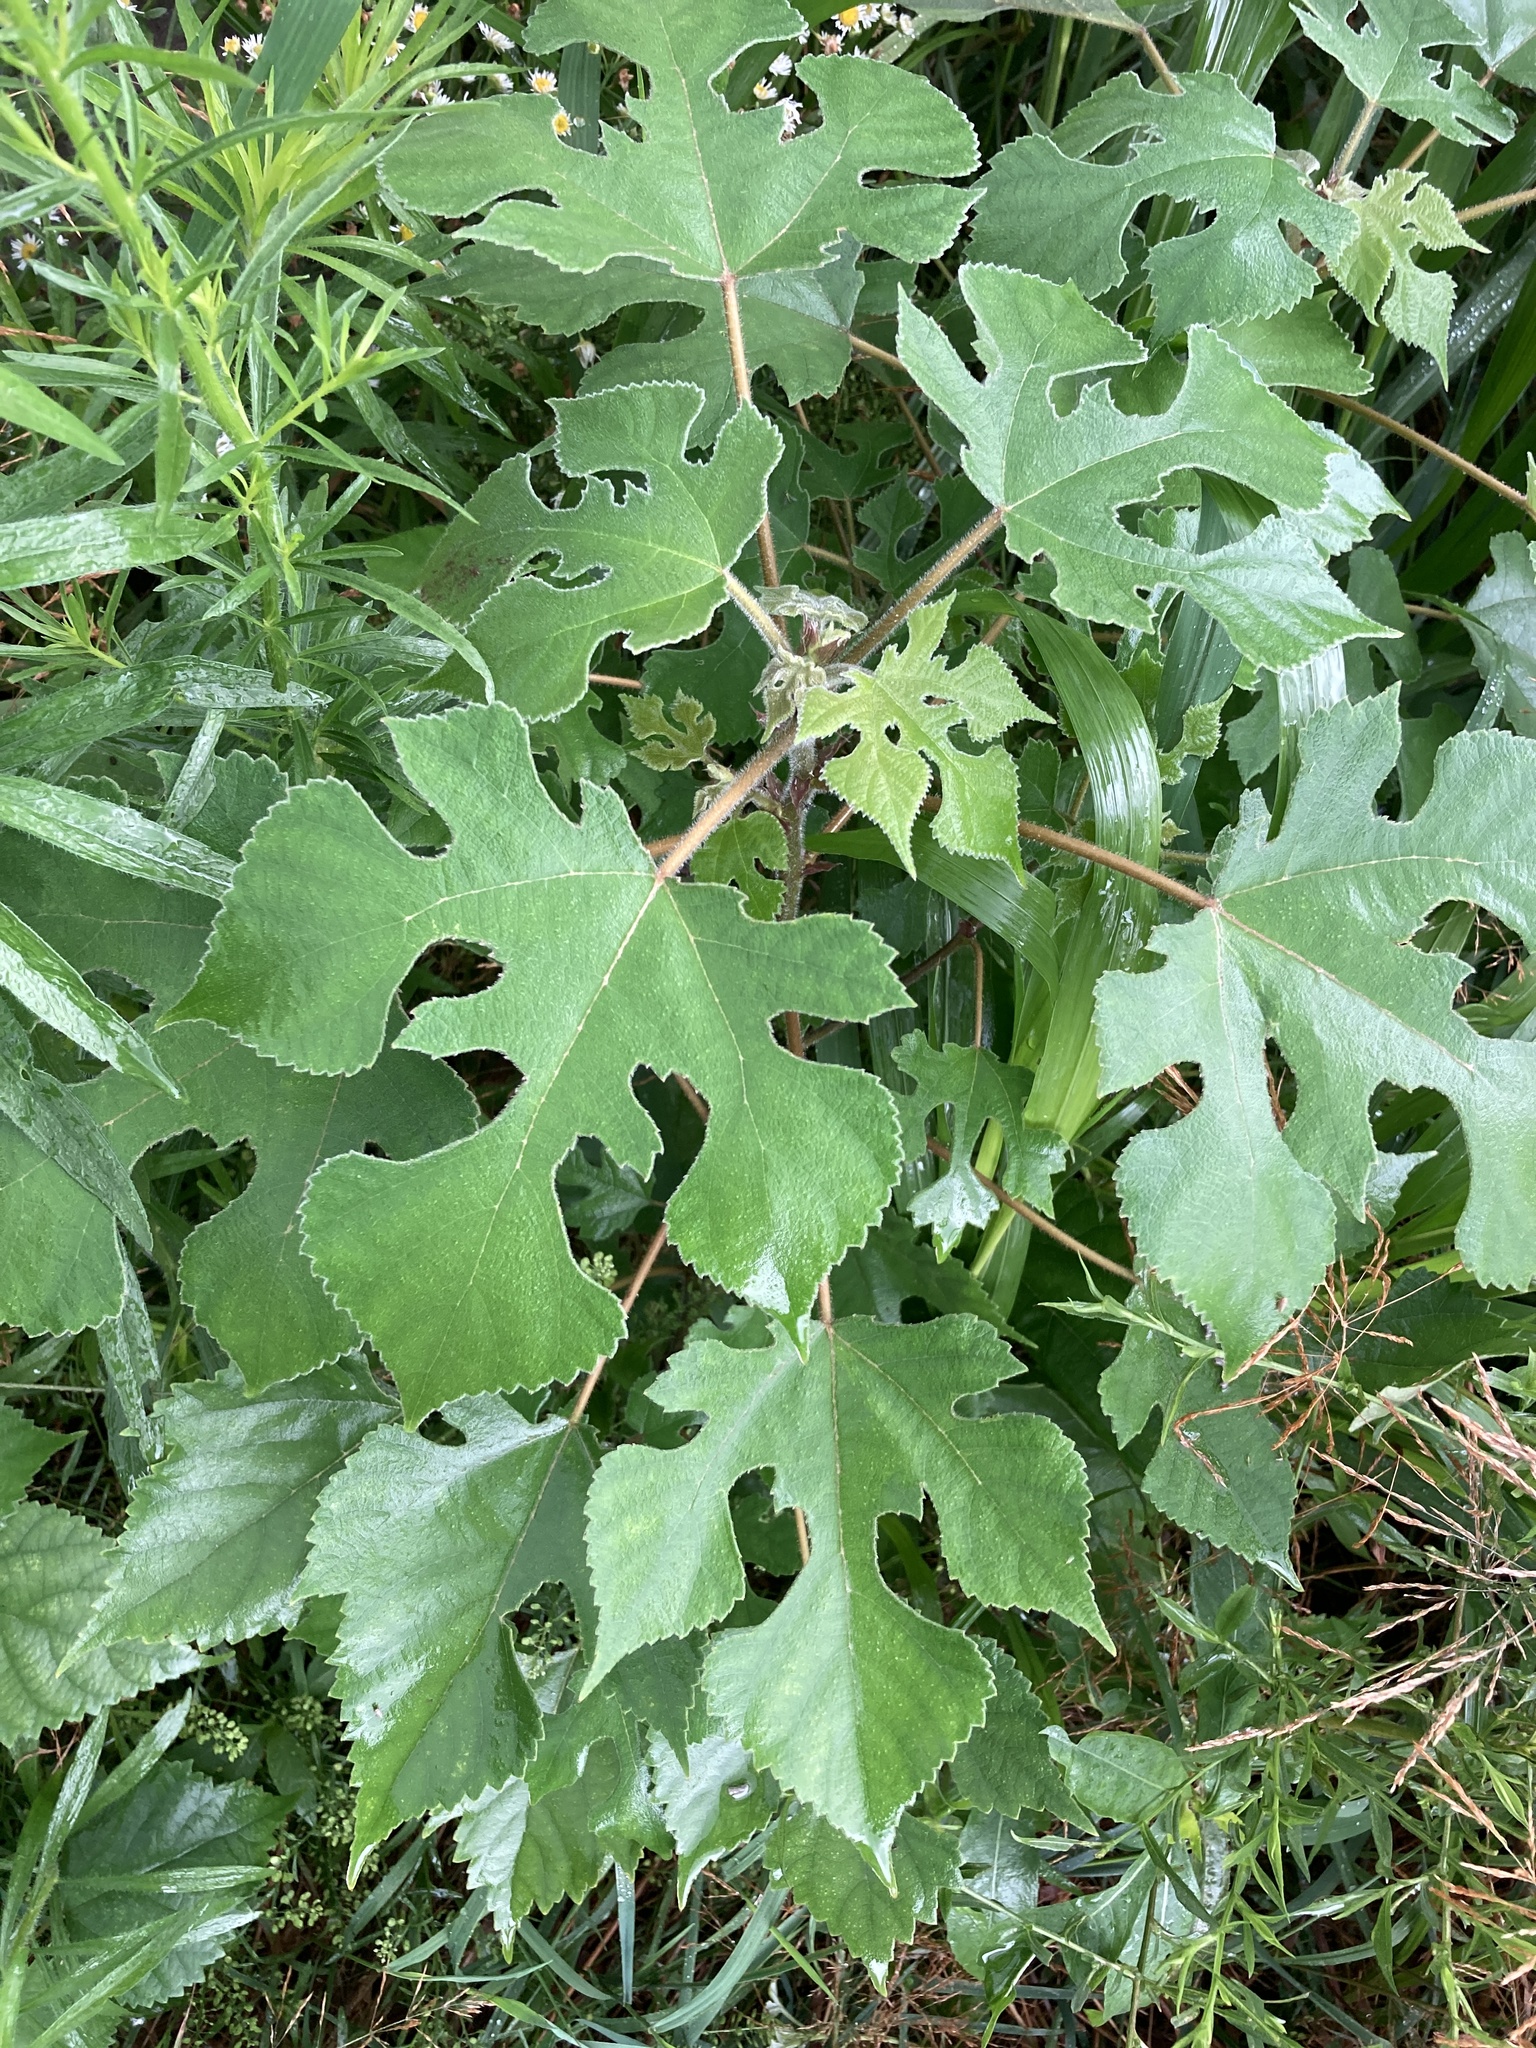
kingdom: Plantae
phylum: Tracheophyta
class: Magnoliopsida
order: Rosales
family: Moraceae
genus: Broussonetia
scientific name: Broussonetia papyrifera
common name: Paper mulberry
